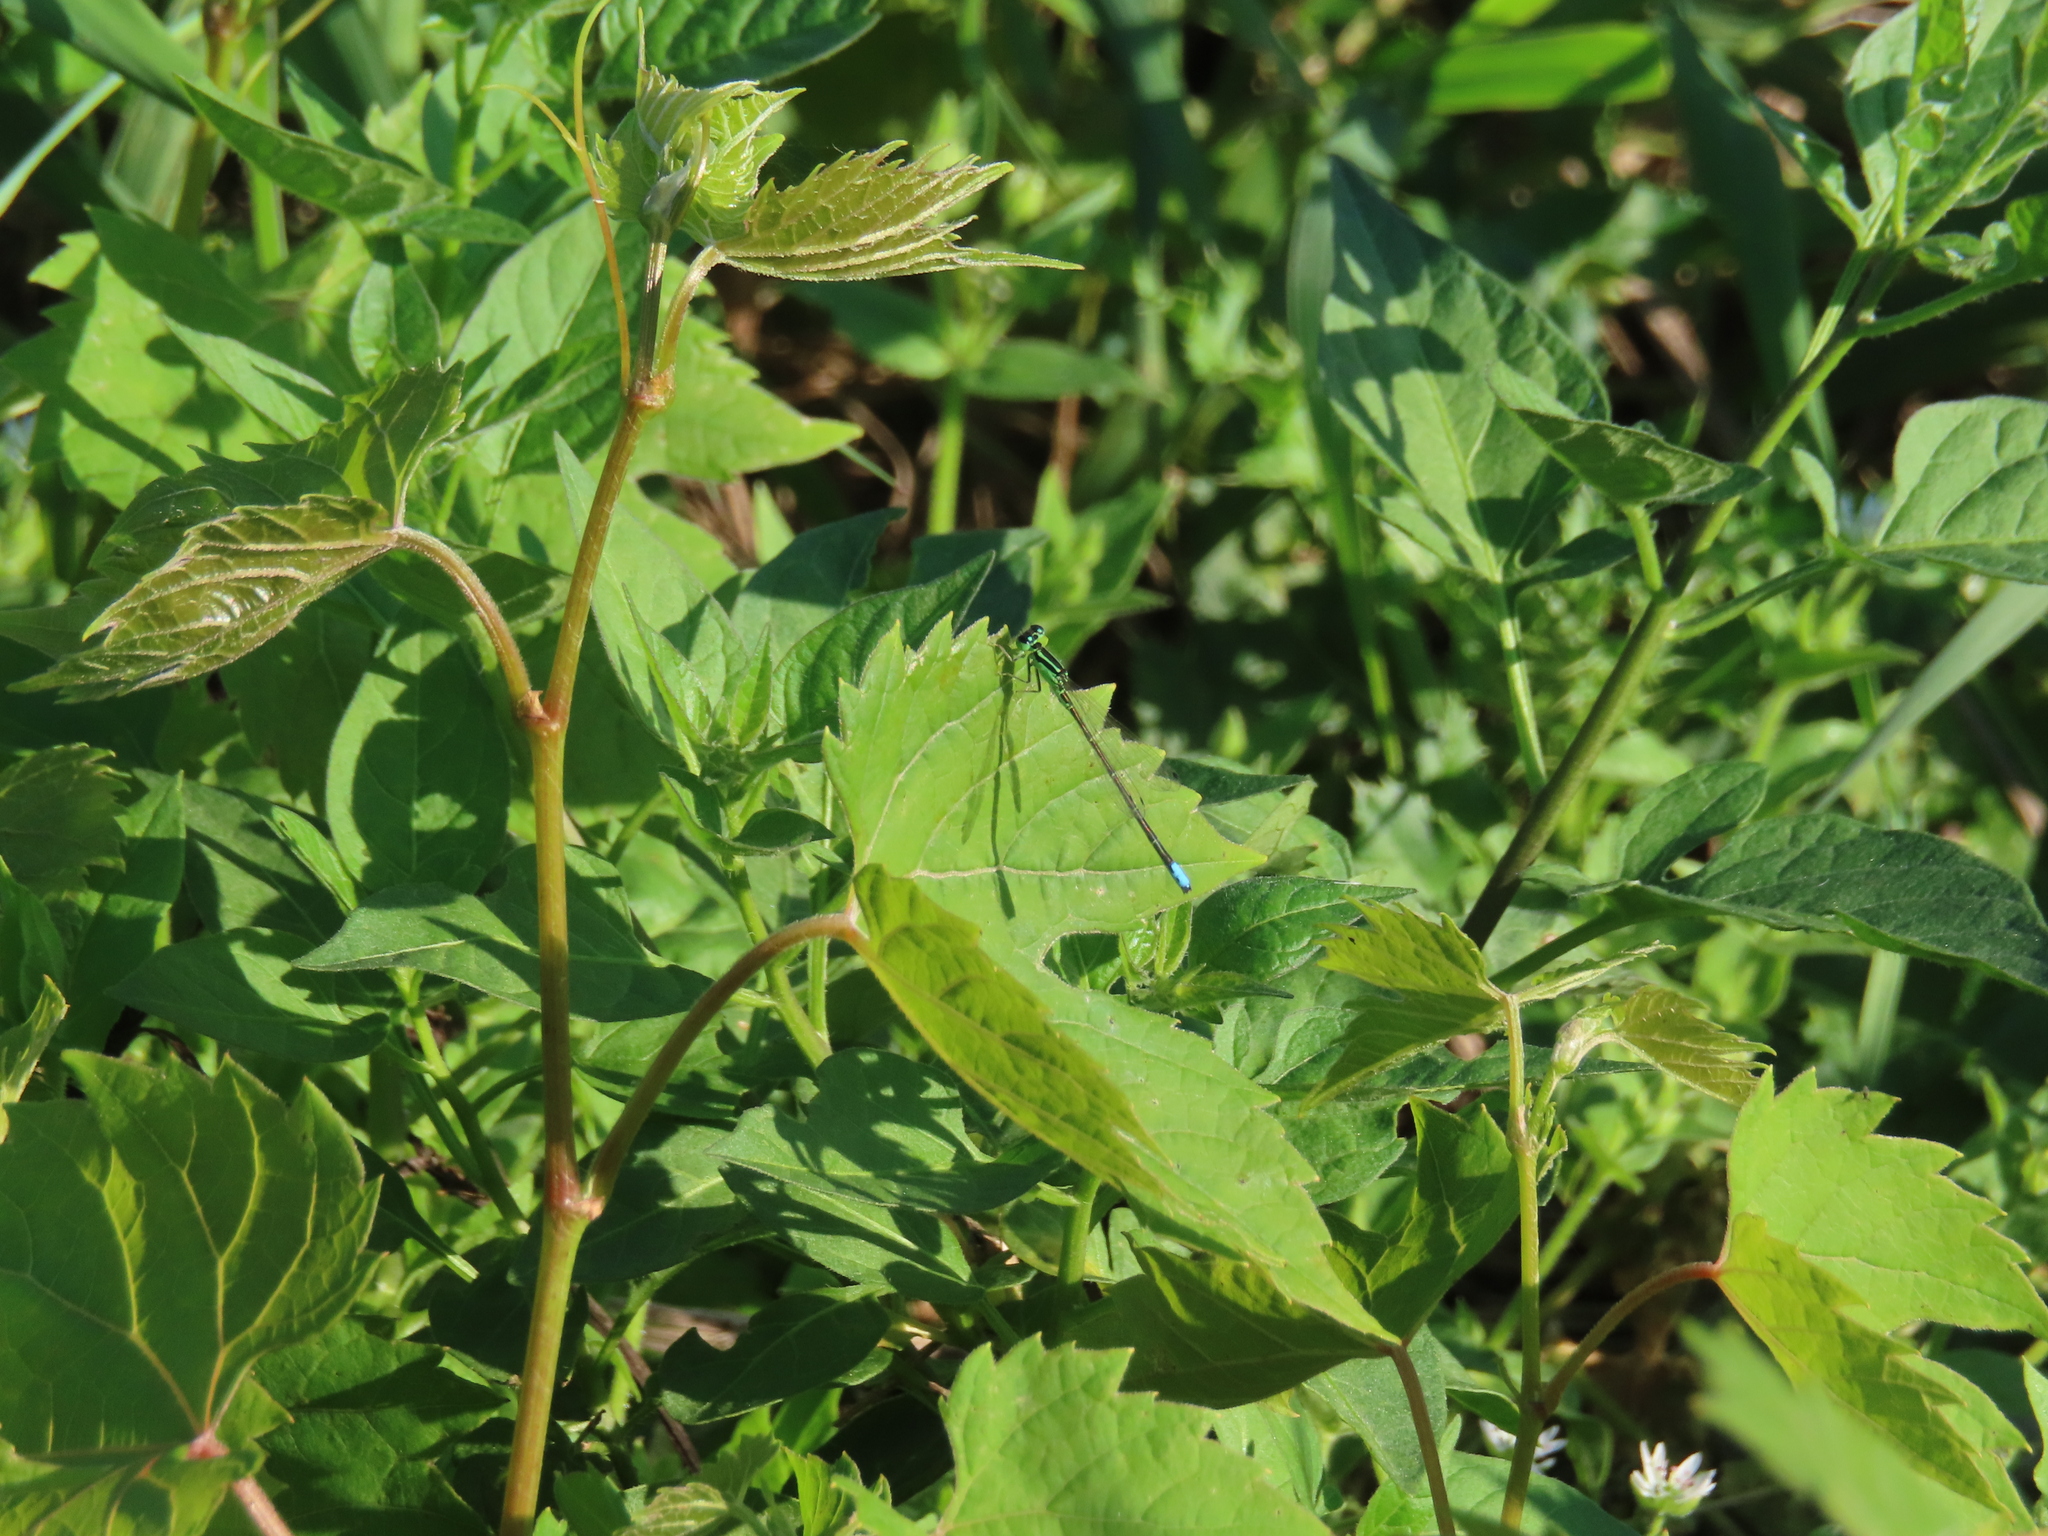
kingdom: Animalia
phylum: Arthropoda
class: Insecta
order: Odonata
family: Coenagrionidae
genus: Ischnura
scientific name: Ischnura verticalis
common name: Eastern forktail
